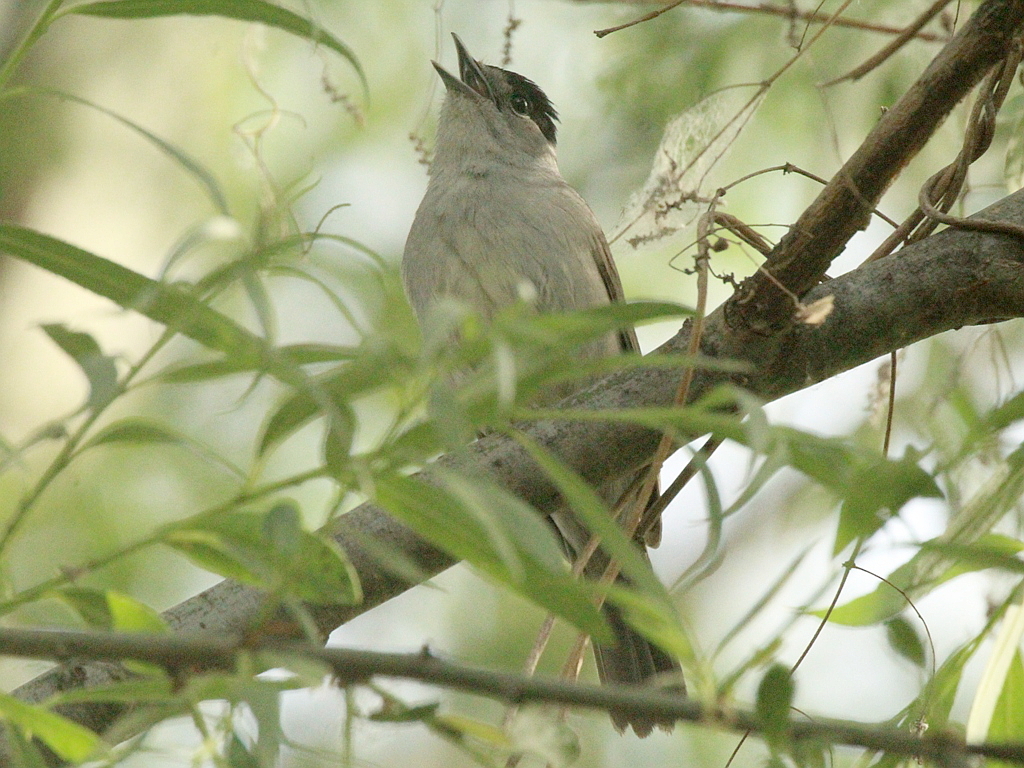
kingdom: Animalia
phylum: Chordata
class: Aves
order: Passeriformes
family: Sylviidae
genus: Sylvia
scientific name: Sylvia atricapilla
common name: Eurasian blackcap
